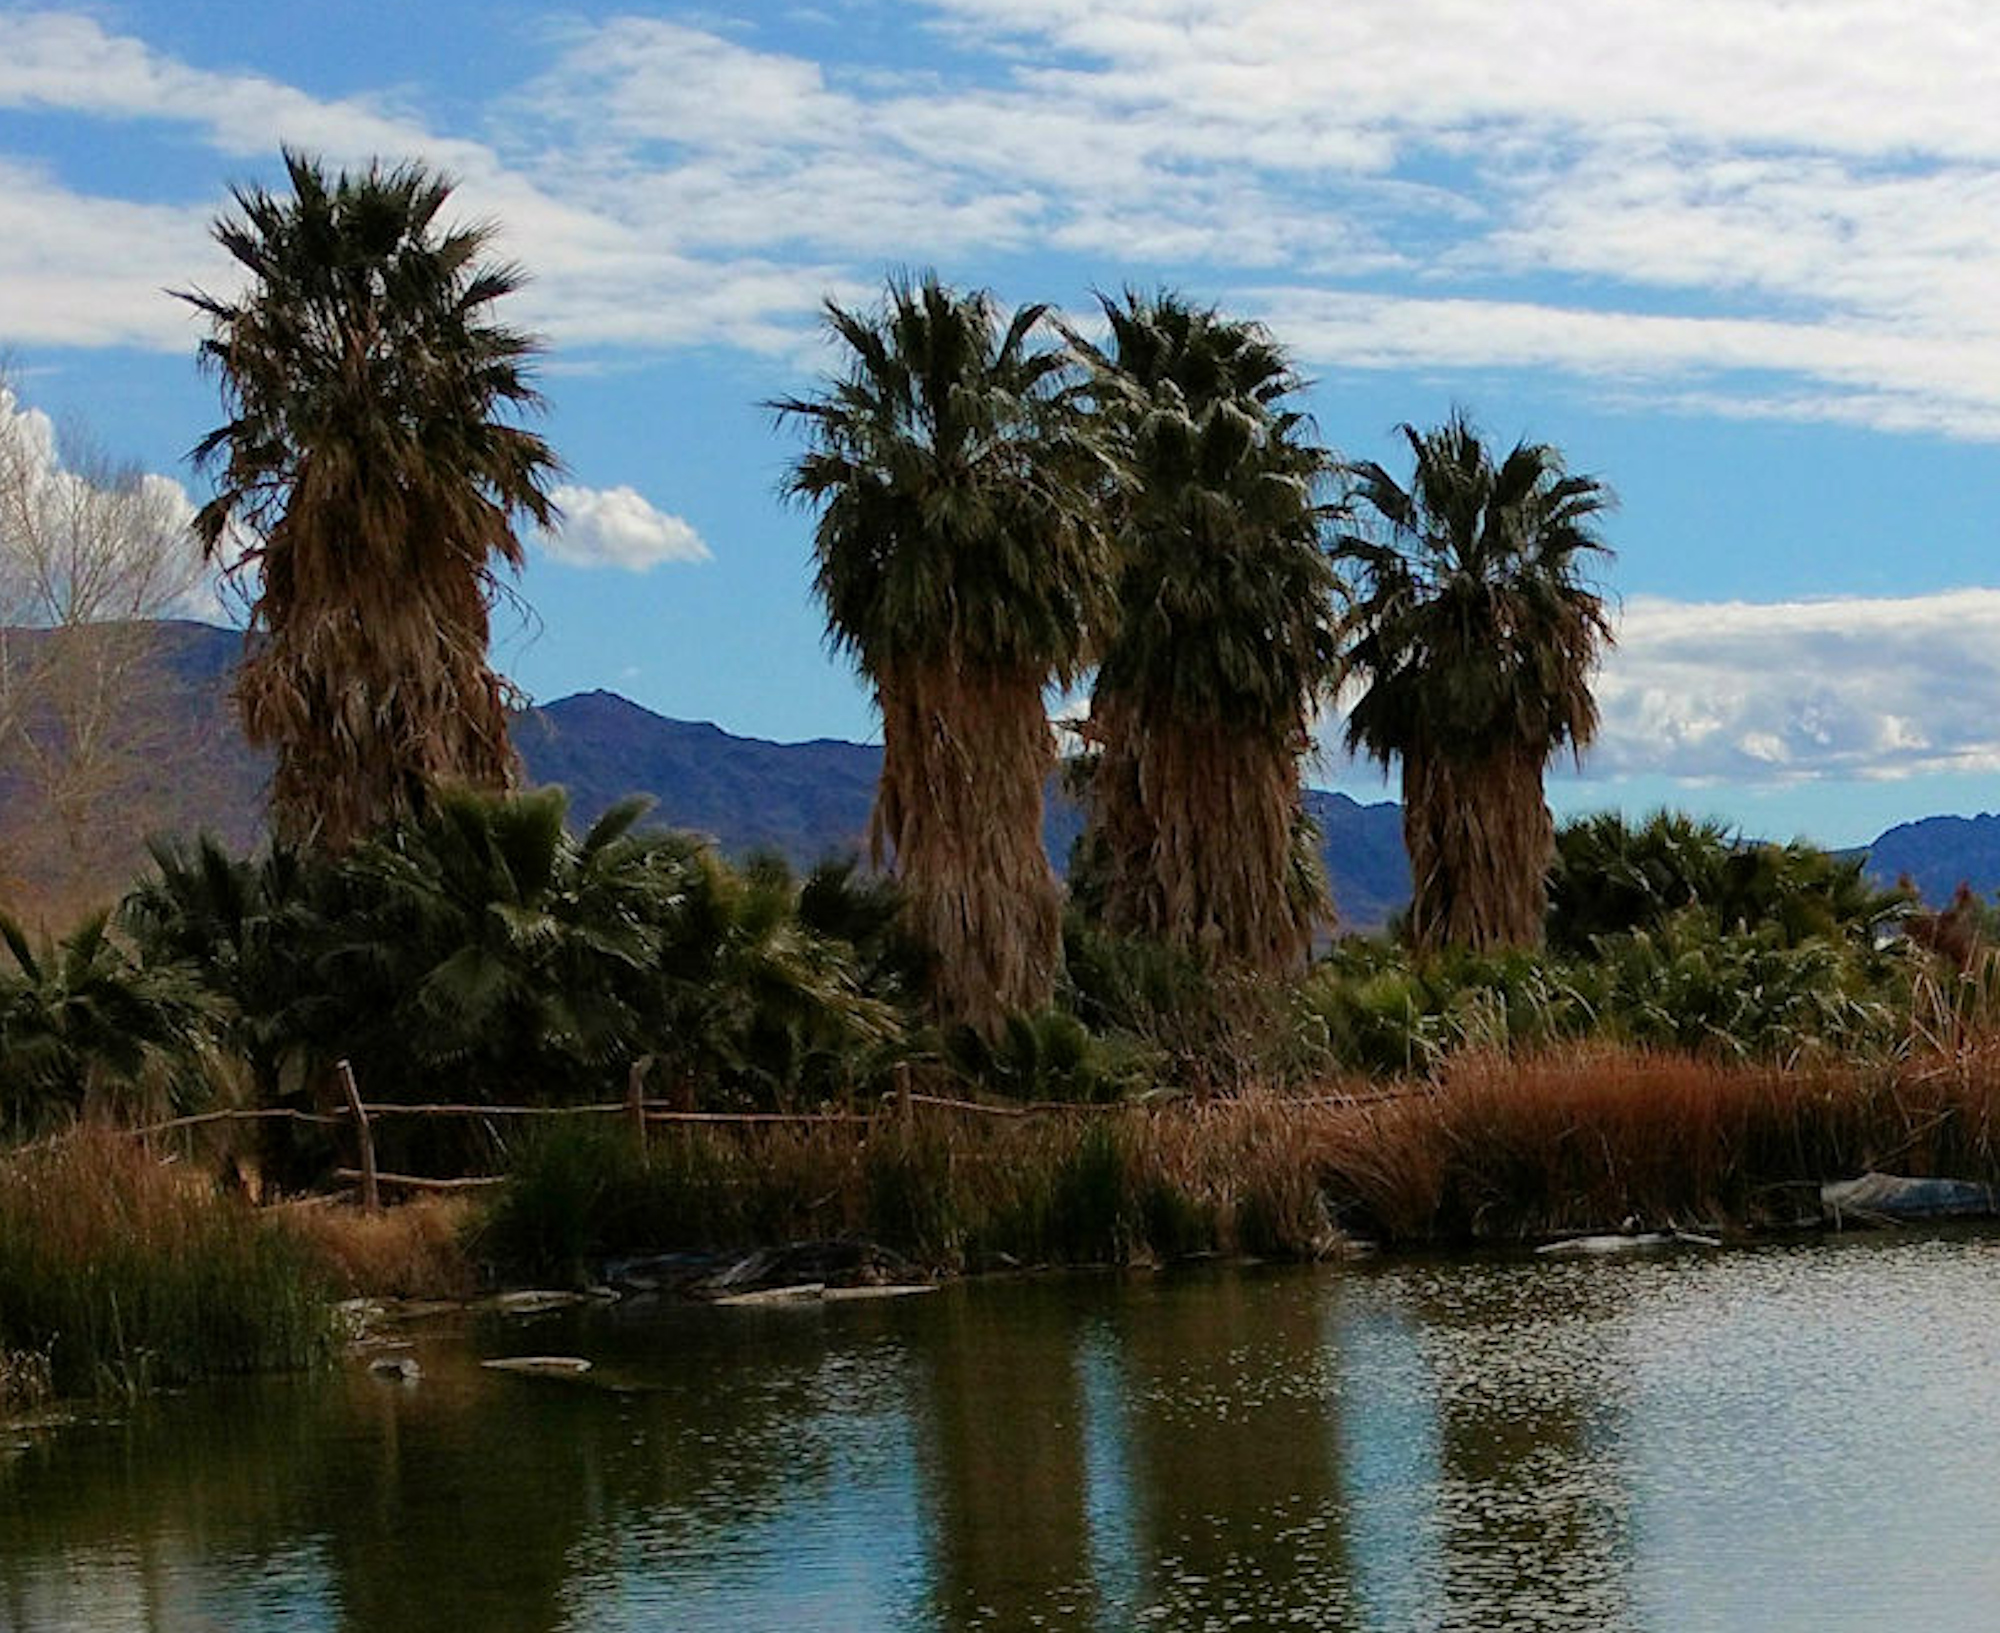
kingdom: Plantae
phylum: Tracheophyta
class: Liliopsida
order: Arecales
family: Arecaceae
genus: Washingtonia
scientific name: Washingtonia filifera
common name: California fan palm
